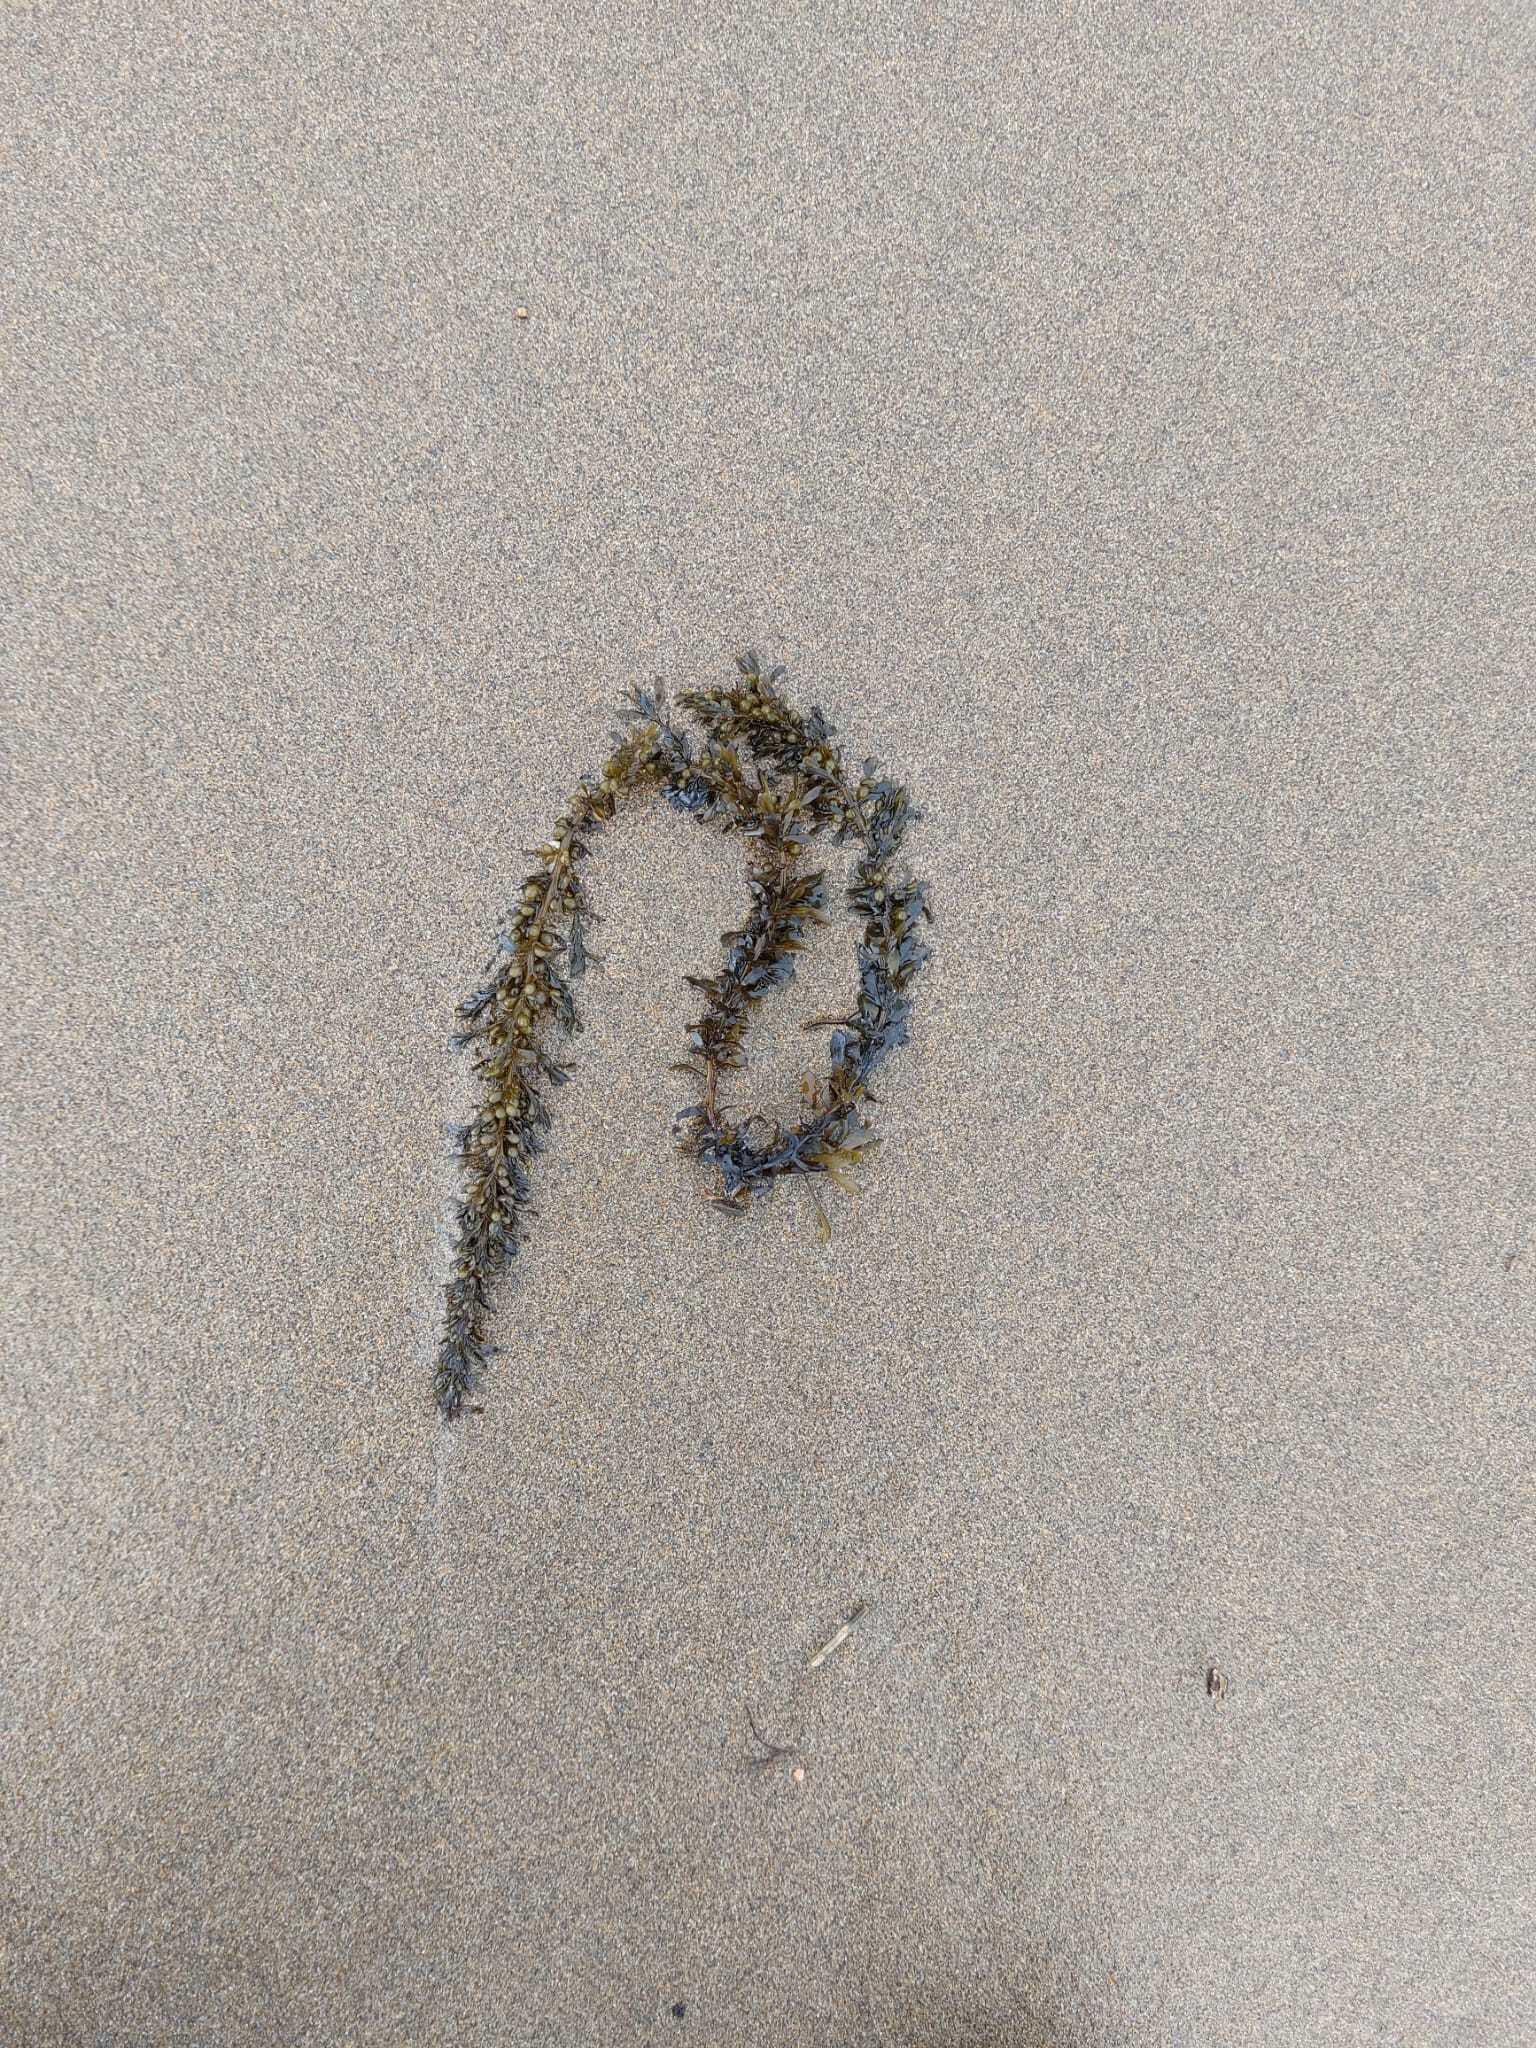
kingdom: Chromista
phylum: Ochrophyta
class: Phaeophyceae
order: Fucales
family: Sargassaceae
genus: Sargassum
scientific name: Sargassum muticum
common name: Japweed
